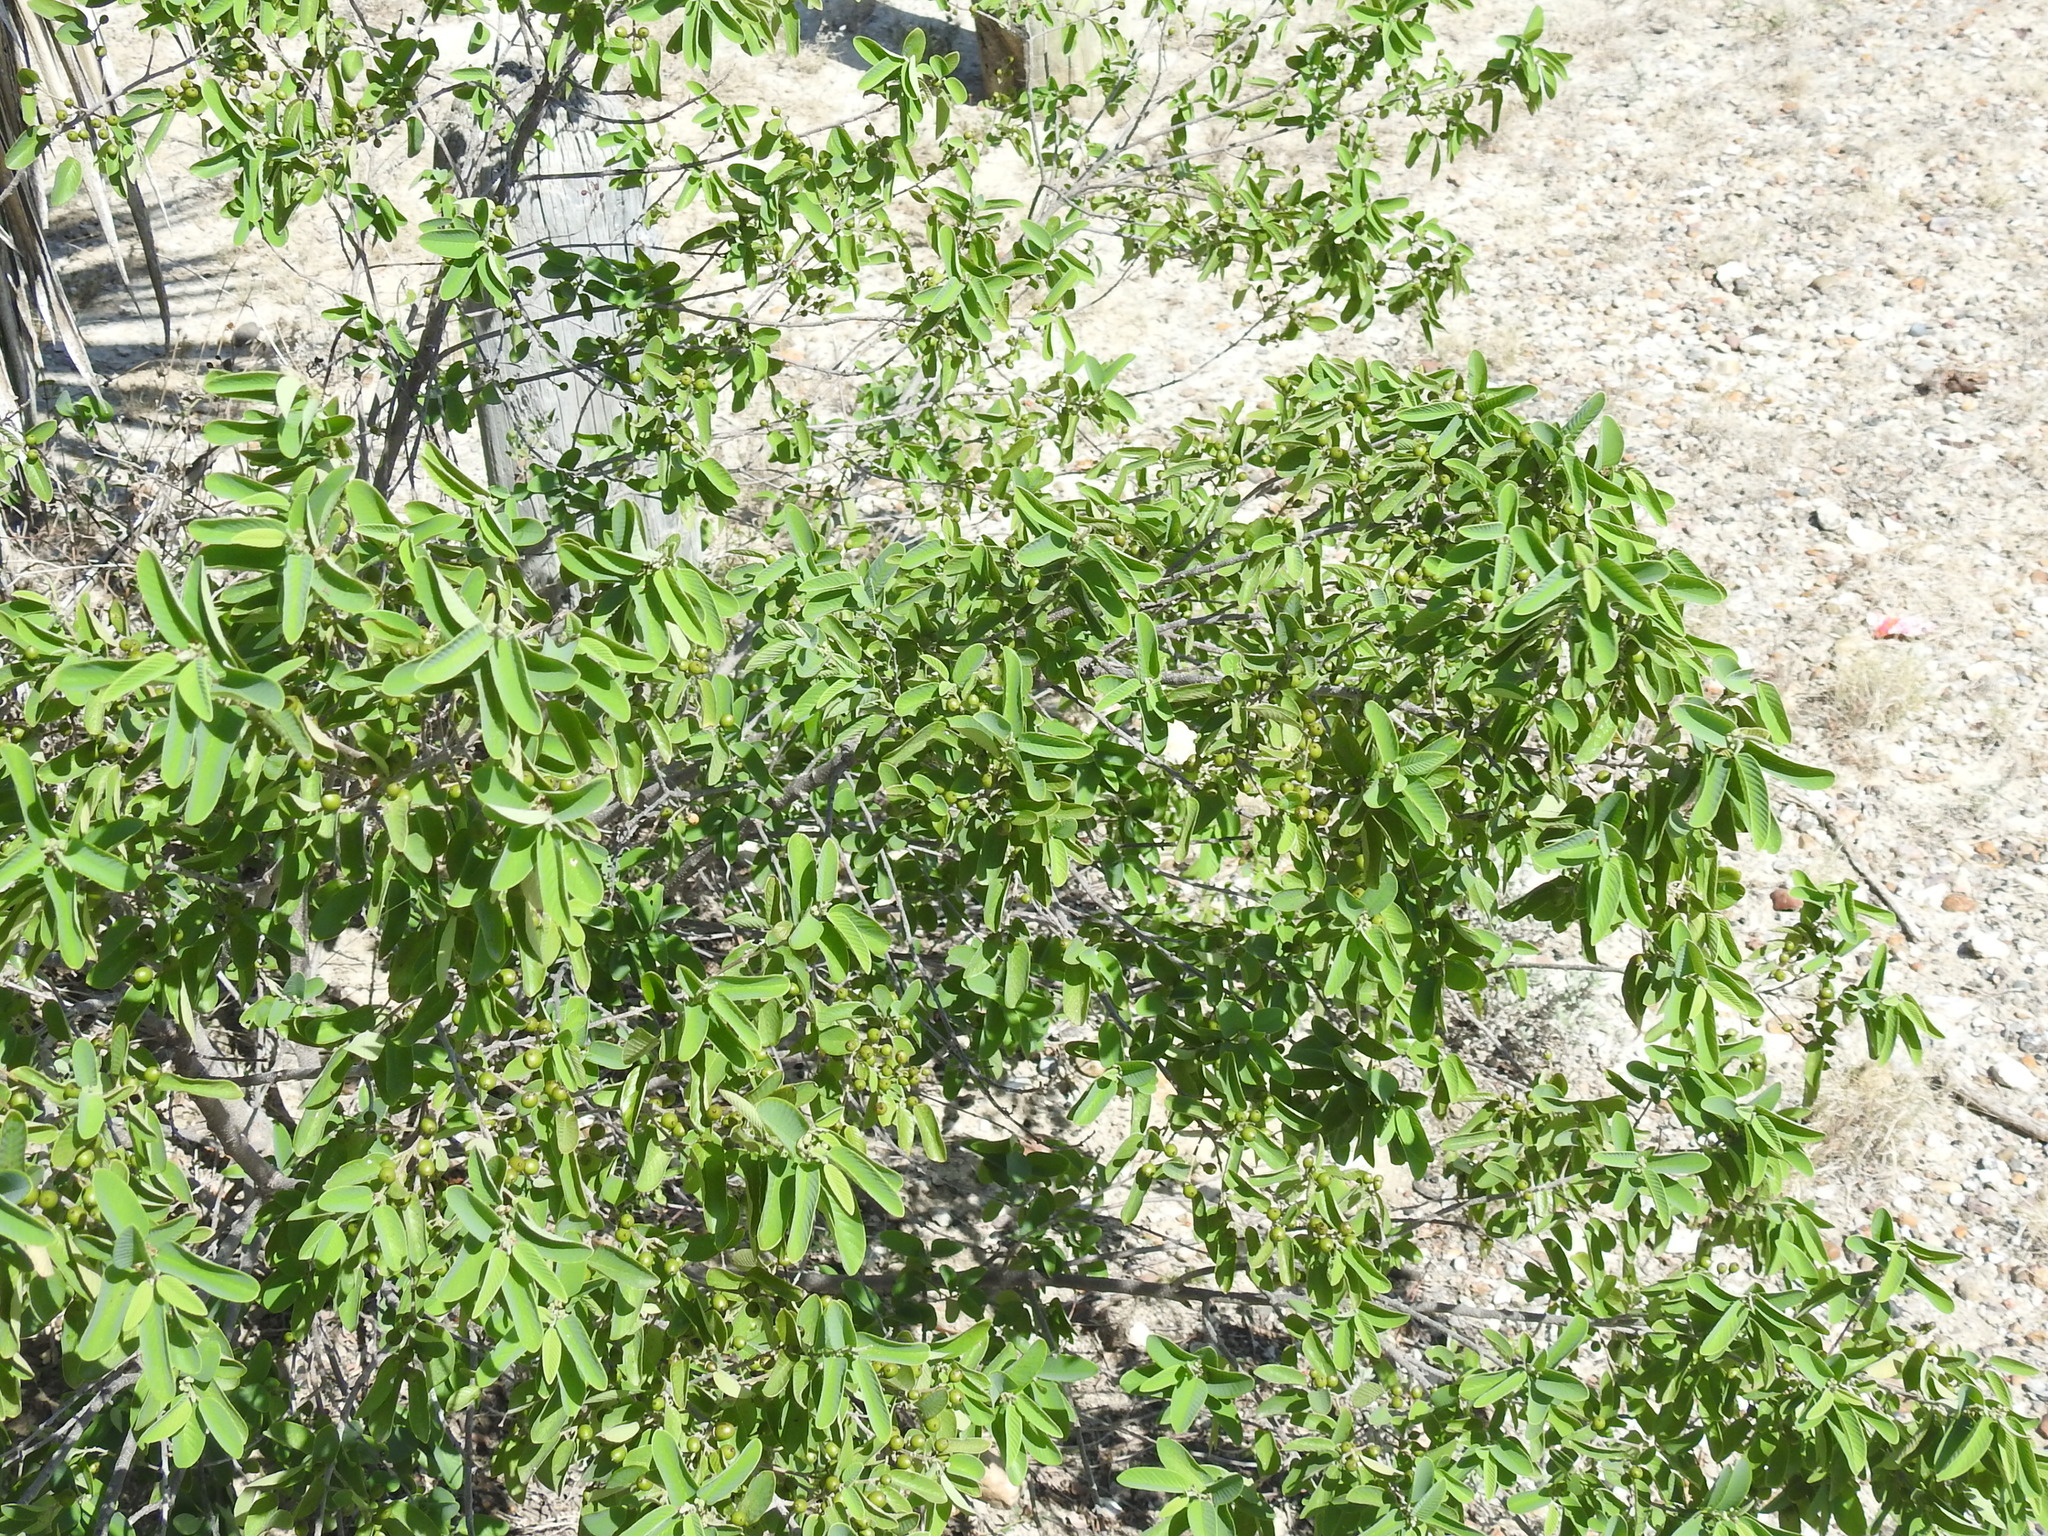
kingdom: Plantae
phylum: Tracheophyta
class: Magnoliopsida
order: Rosales
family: Rhamnaceae
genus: Karwinskia
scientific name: Karwinskia humboldtiana
